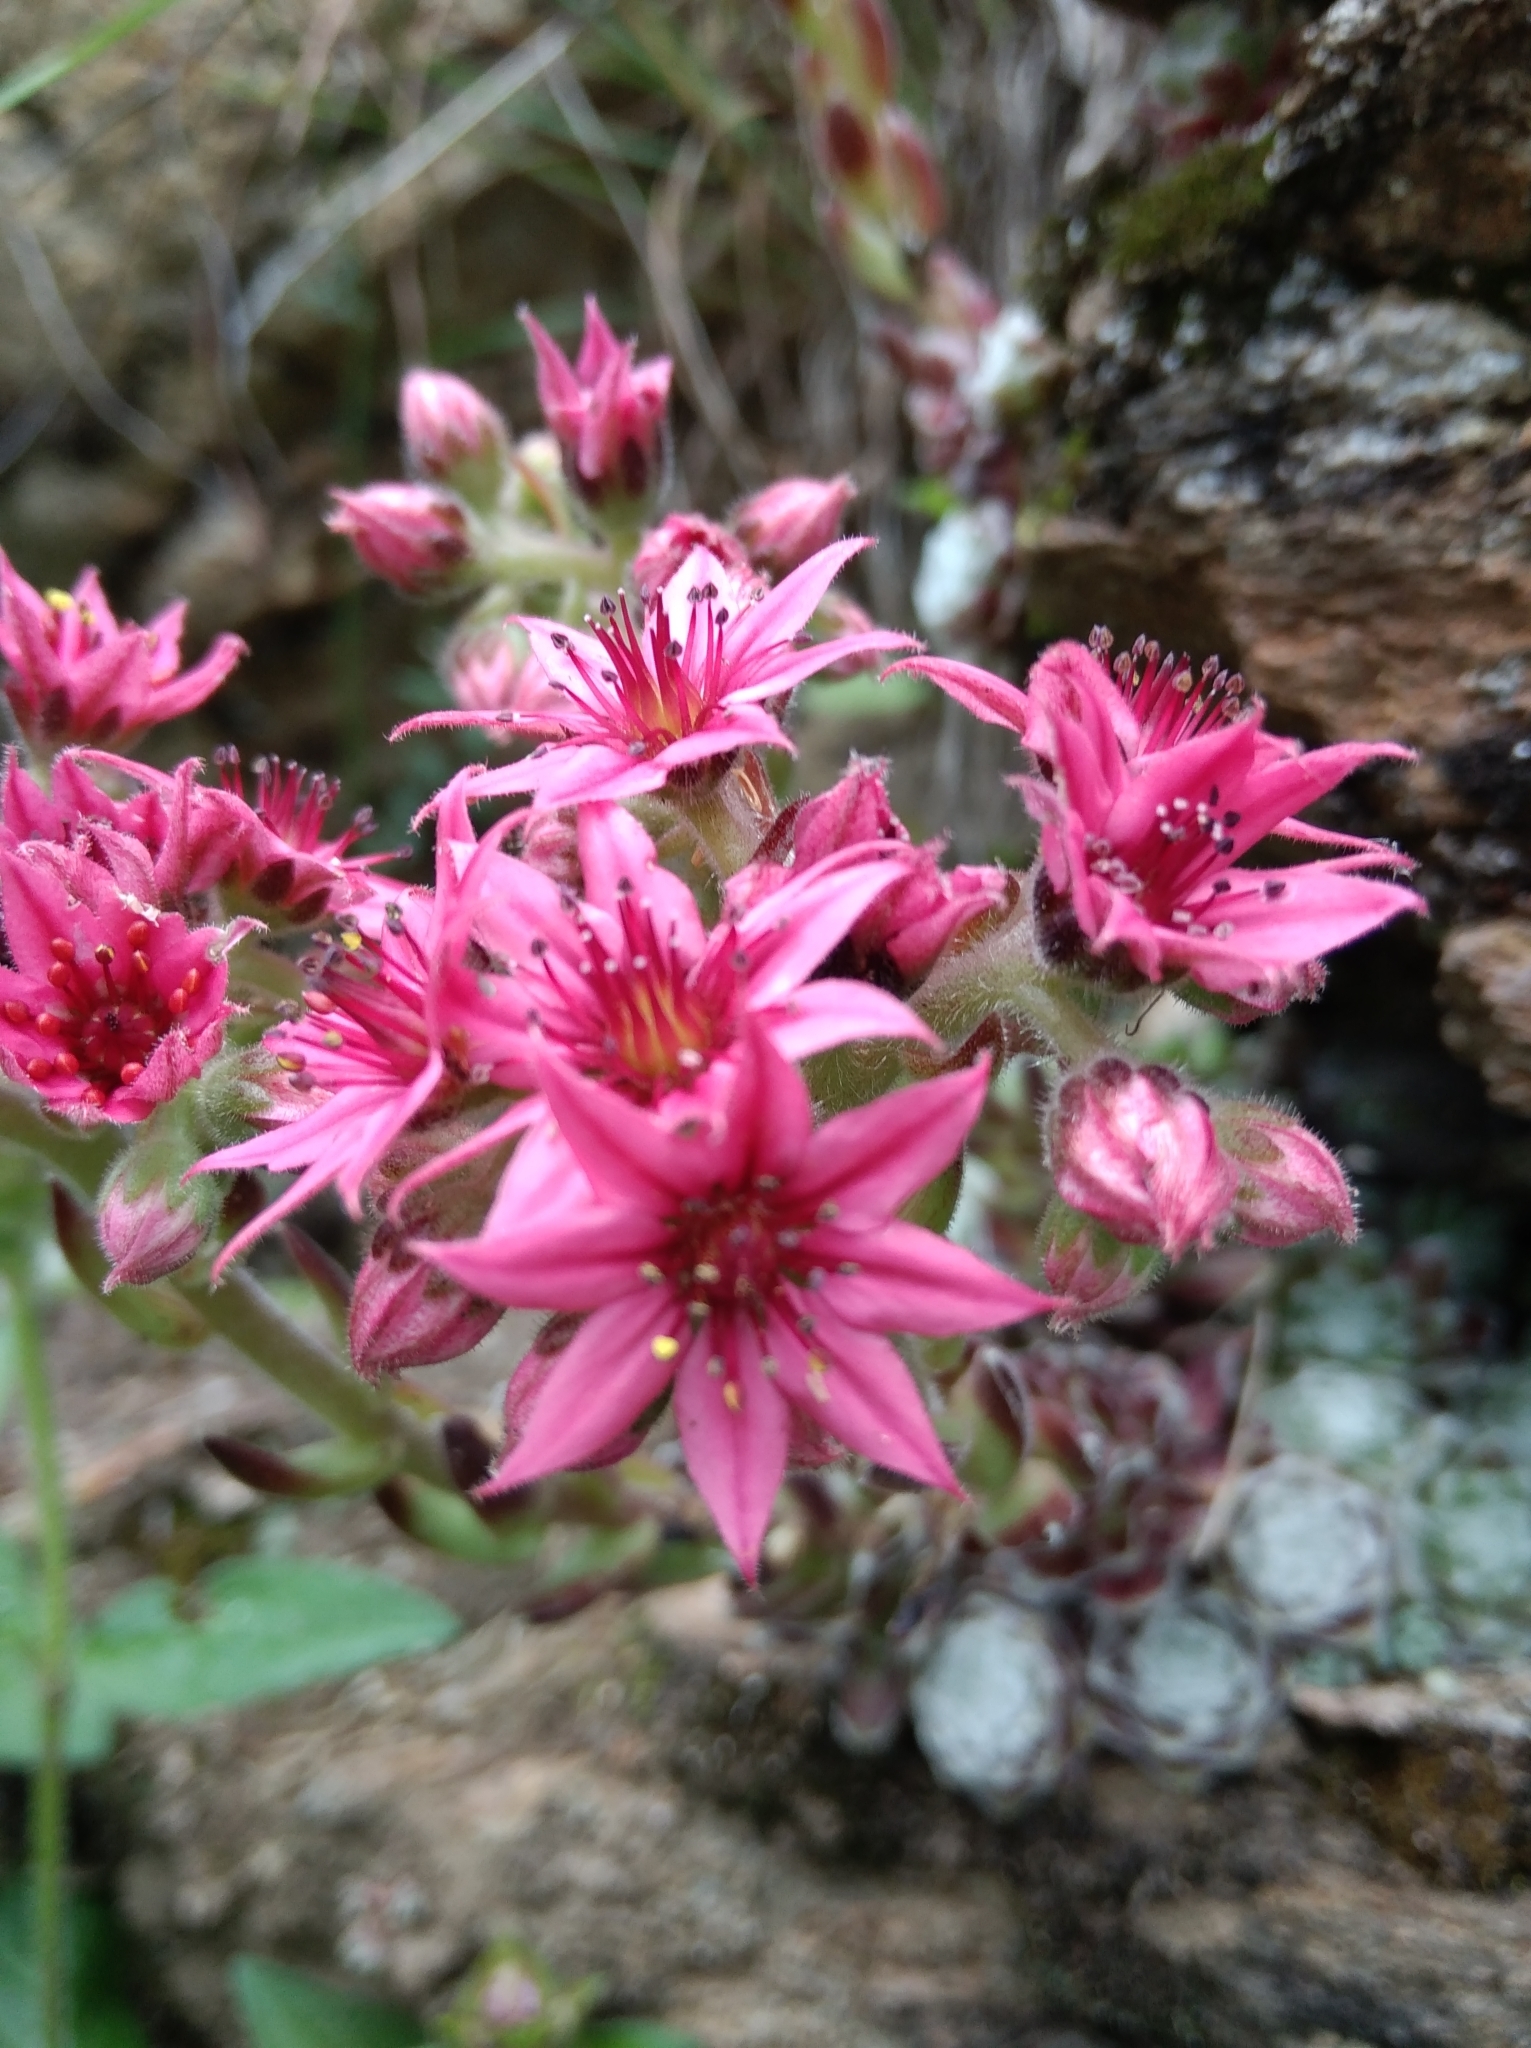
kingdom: Plantae
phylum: Tracheophyta
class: Magnoliopsida
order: Saxifragales
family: Crassulaceae
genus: Sempervivum
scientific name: Sempervivum arachnoideum
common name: Cobweb house-leek
